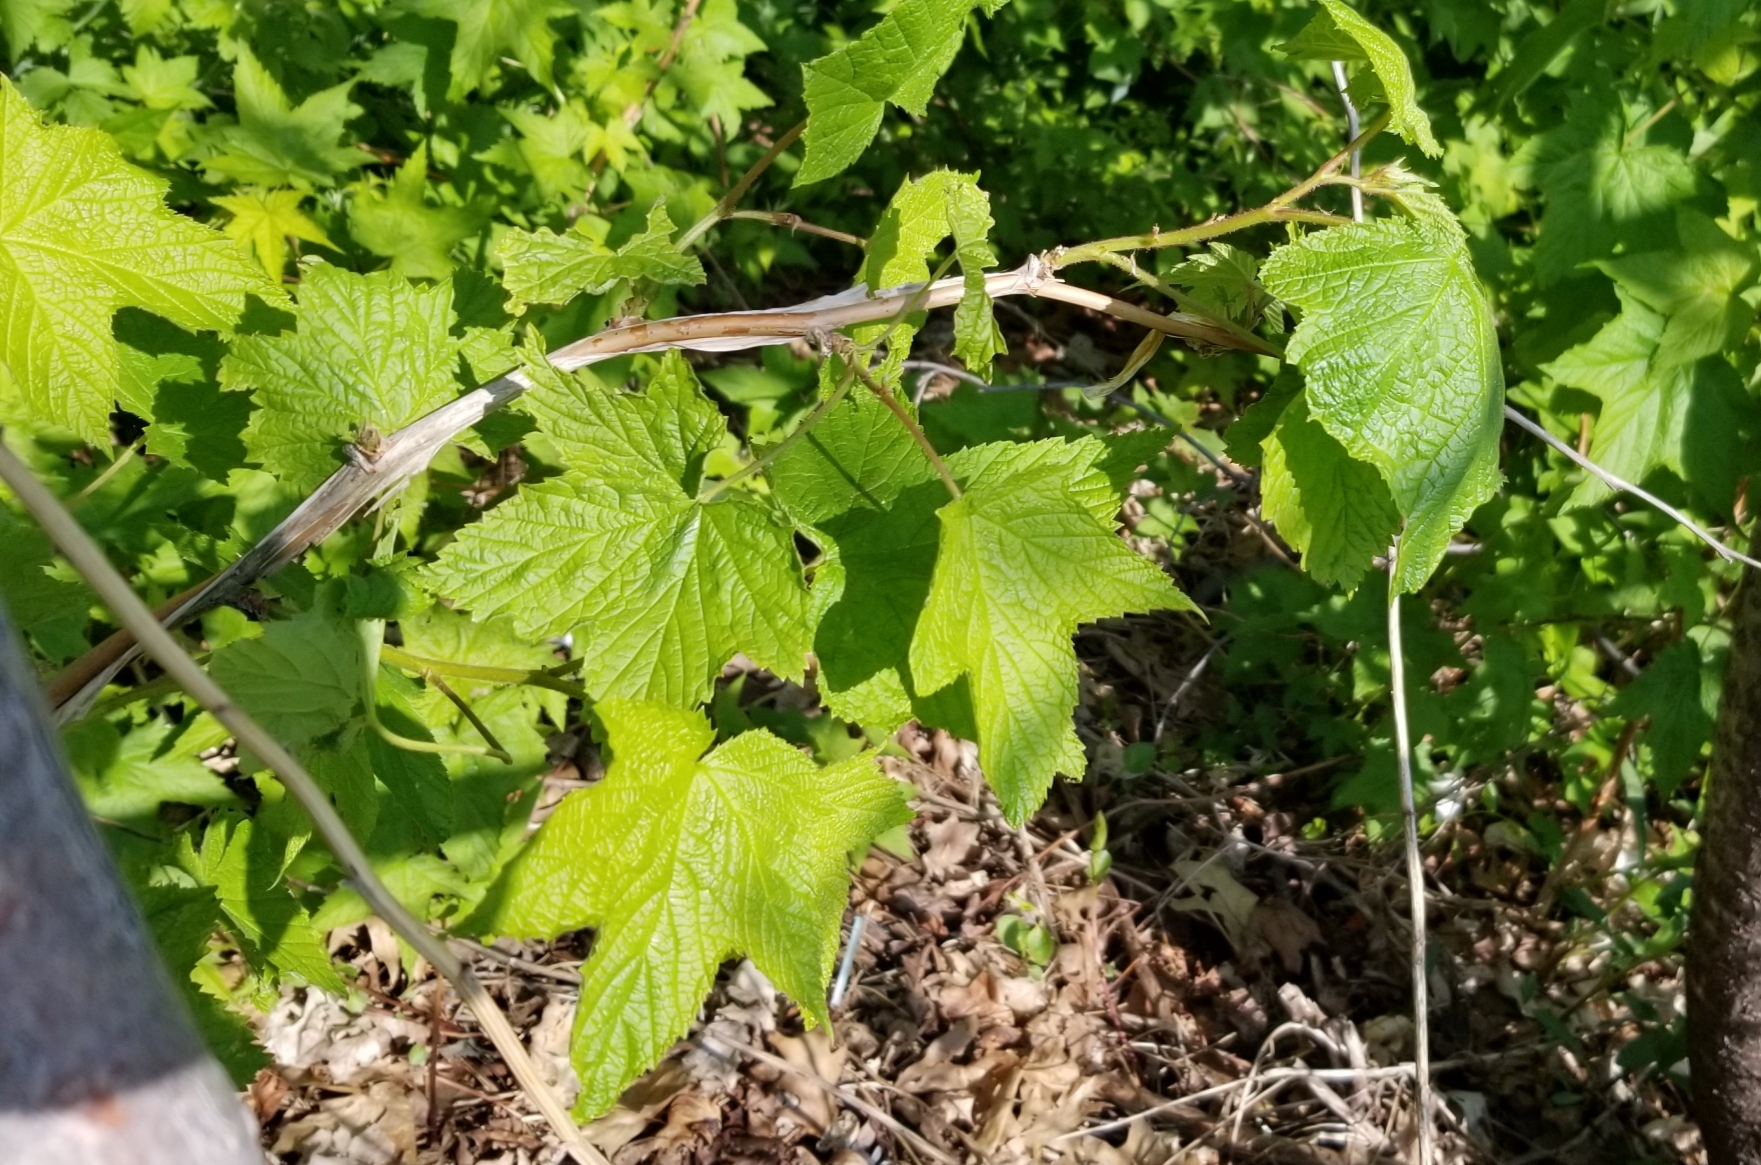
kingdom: Plantae
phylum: Tracheophyta
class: Magnoliopsida
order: Rosales
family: Rosaceae
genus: Rubus
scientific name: Rubus odoratus
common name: Purple-flowered raspberry
